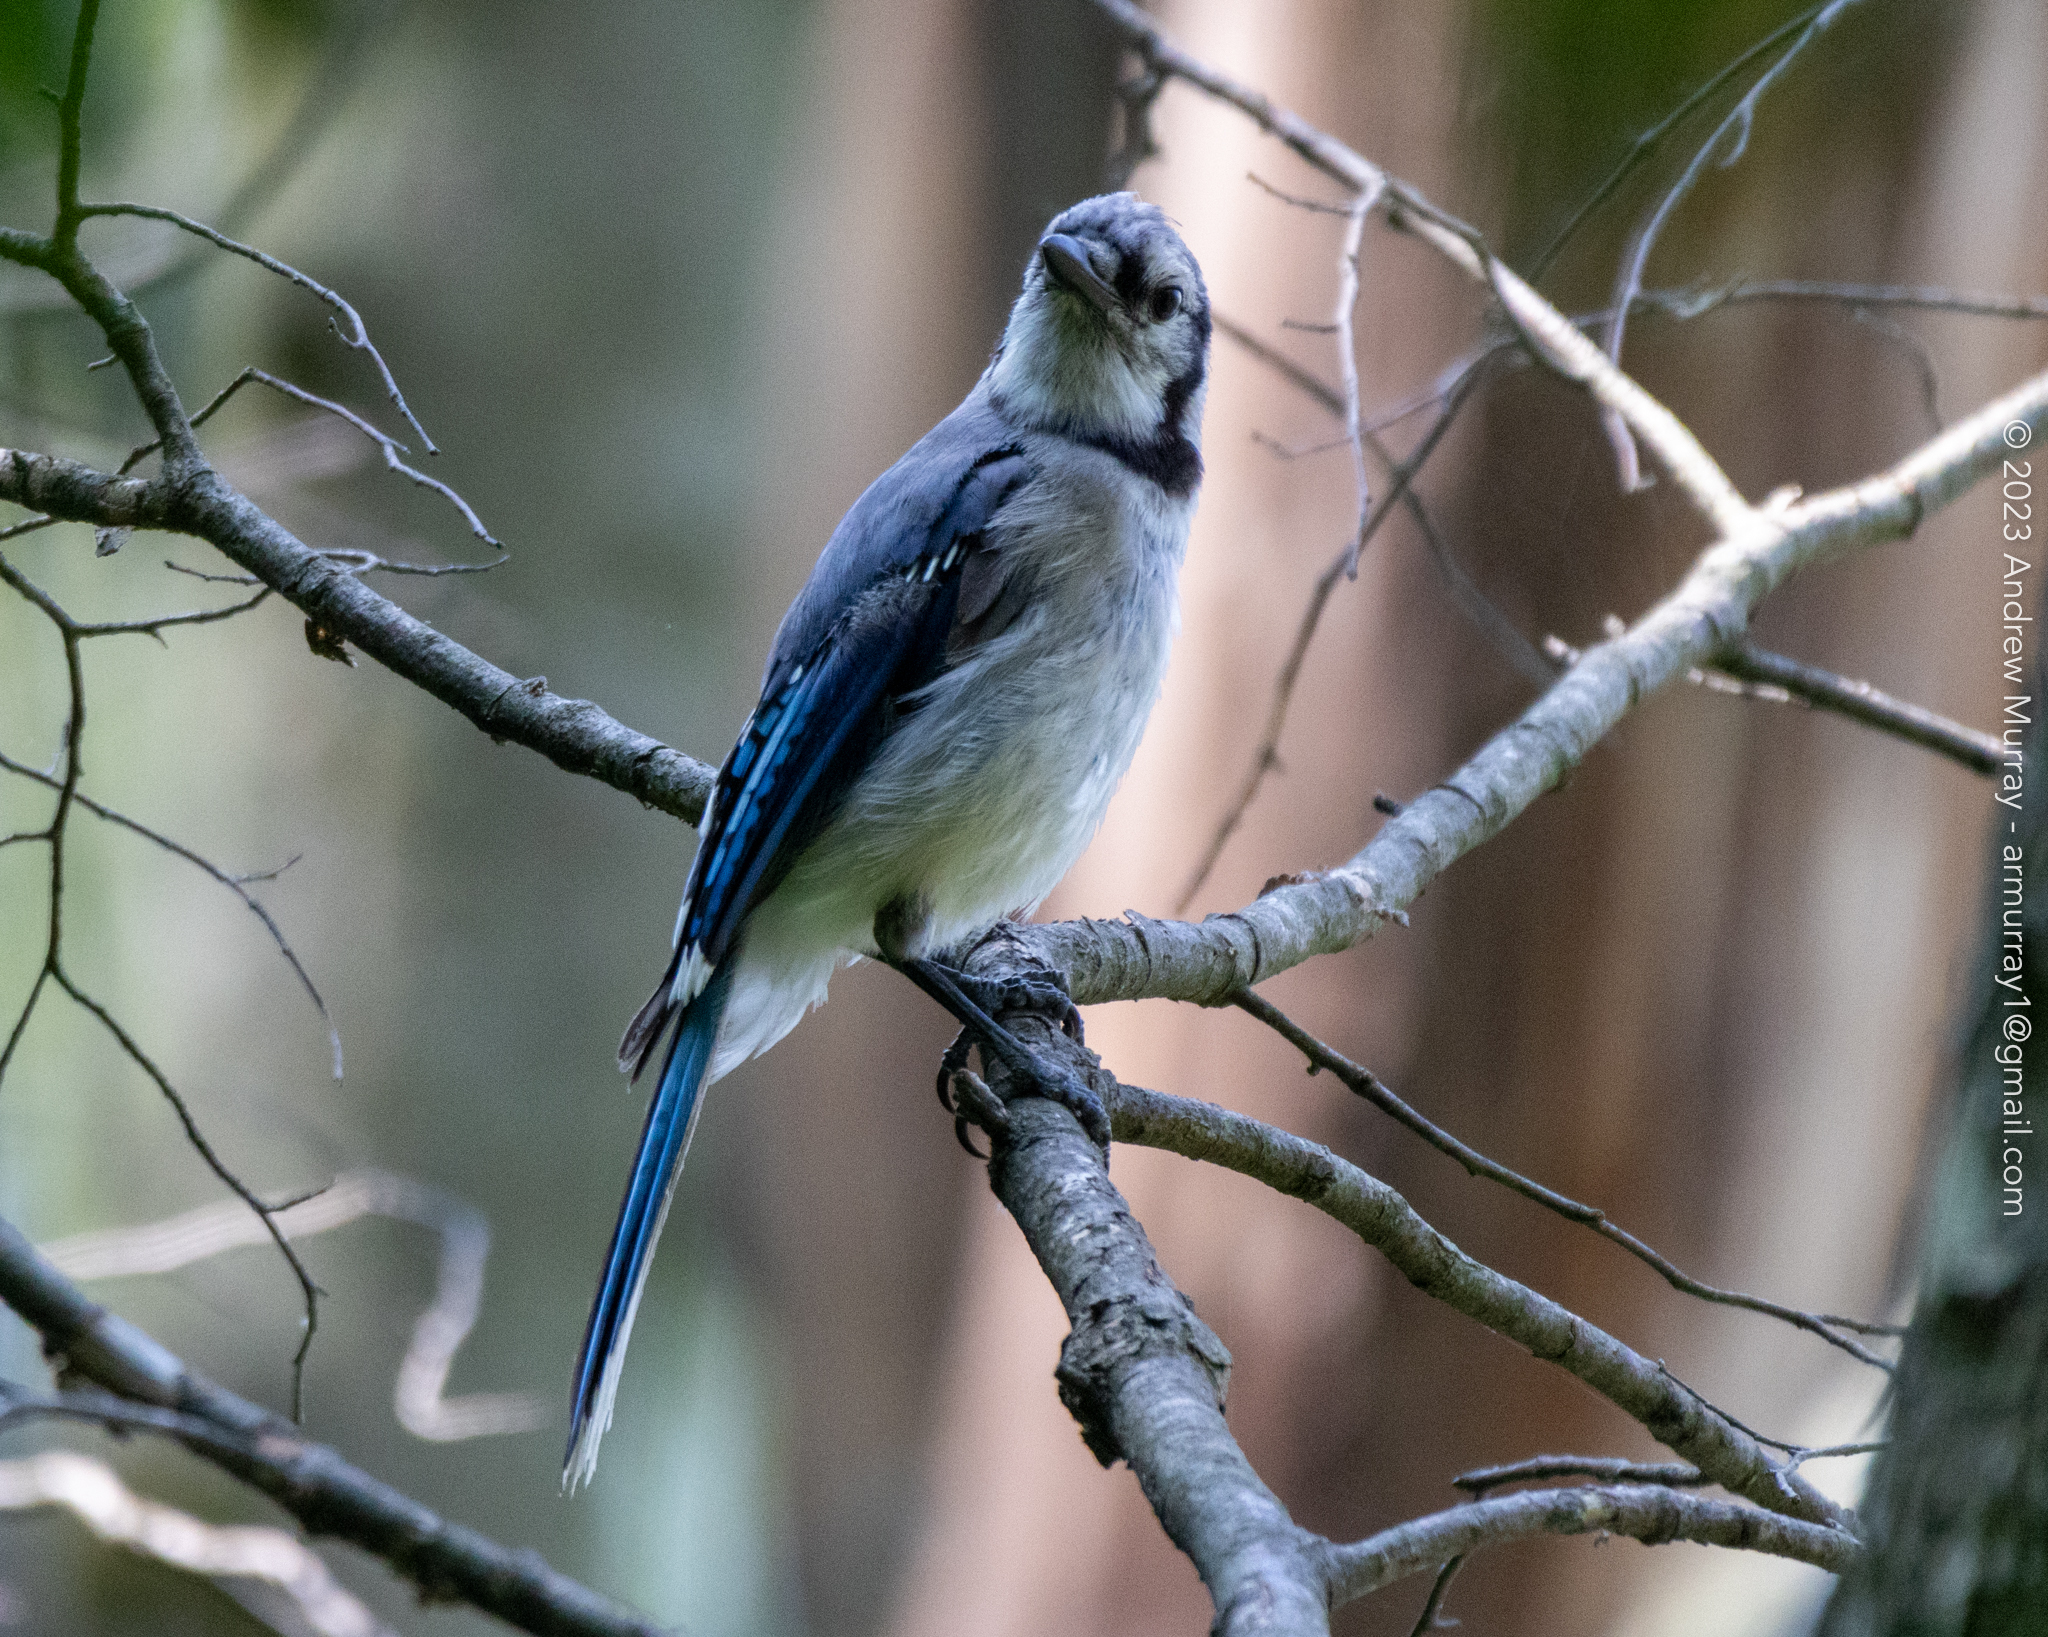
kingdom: Animalia
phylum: Chordata
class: Aves
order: Passeriformes
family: Corvidae
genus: Cyanocitta
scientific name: Cyanocitta cristata
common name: Blue jay
